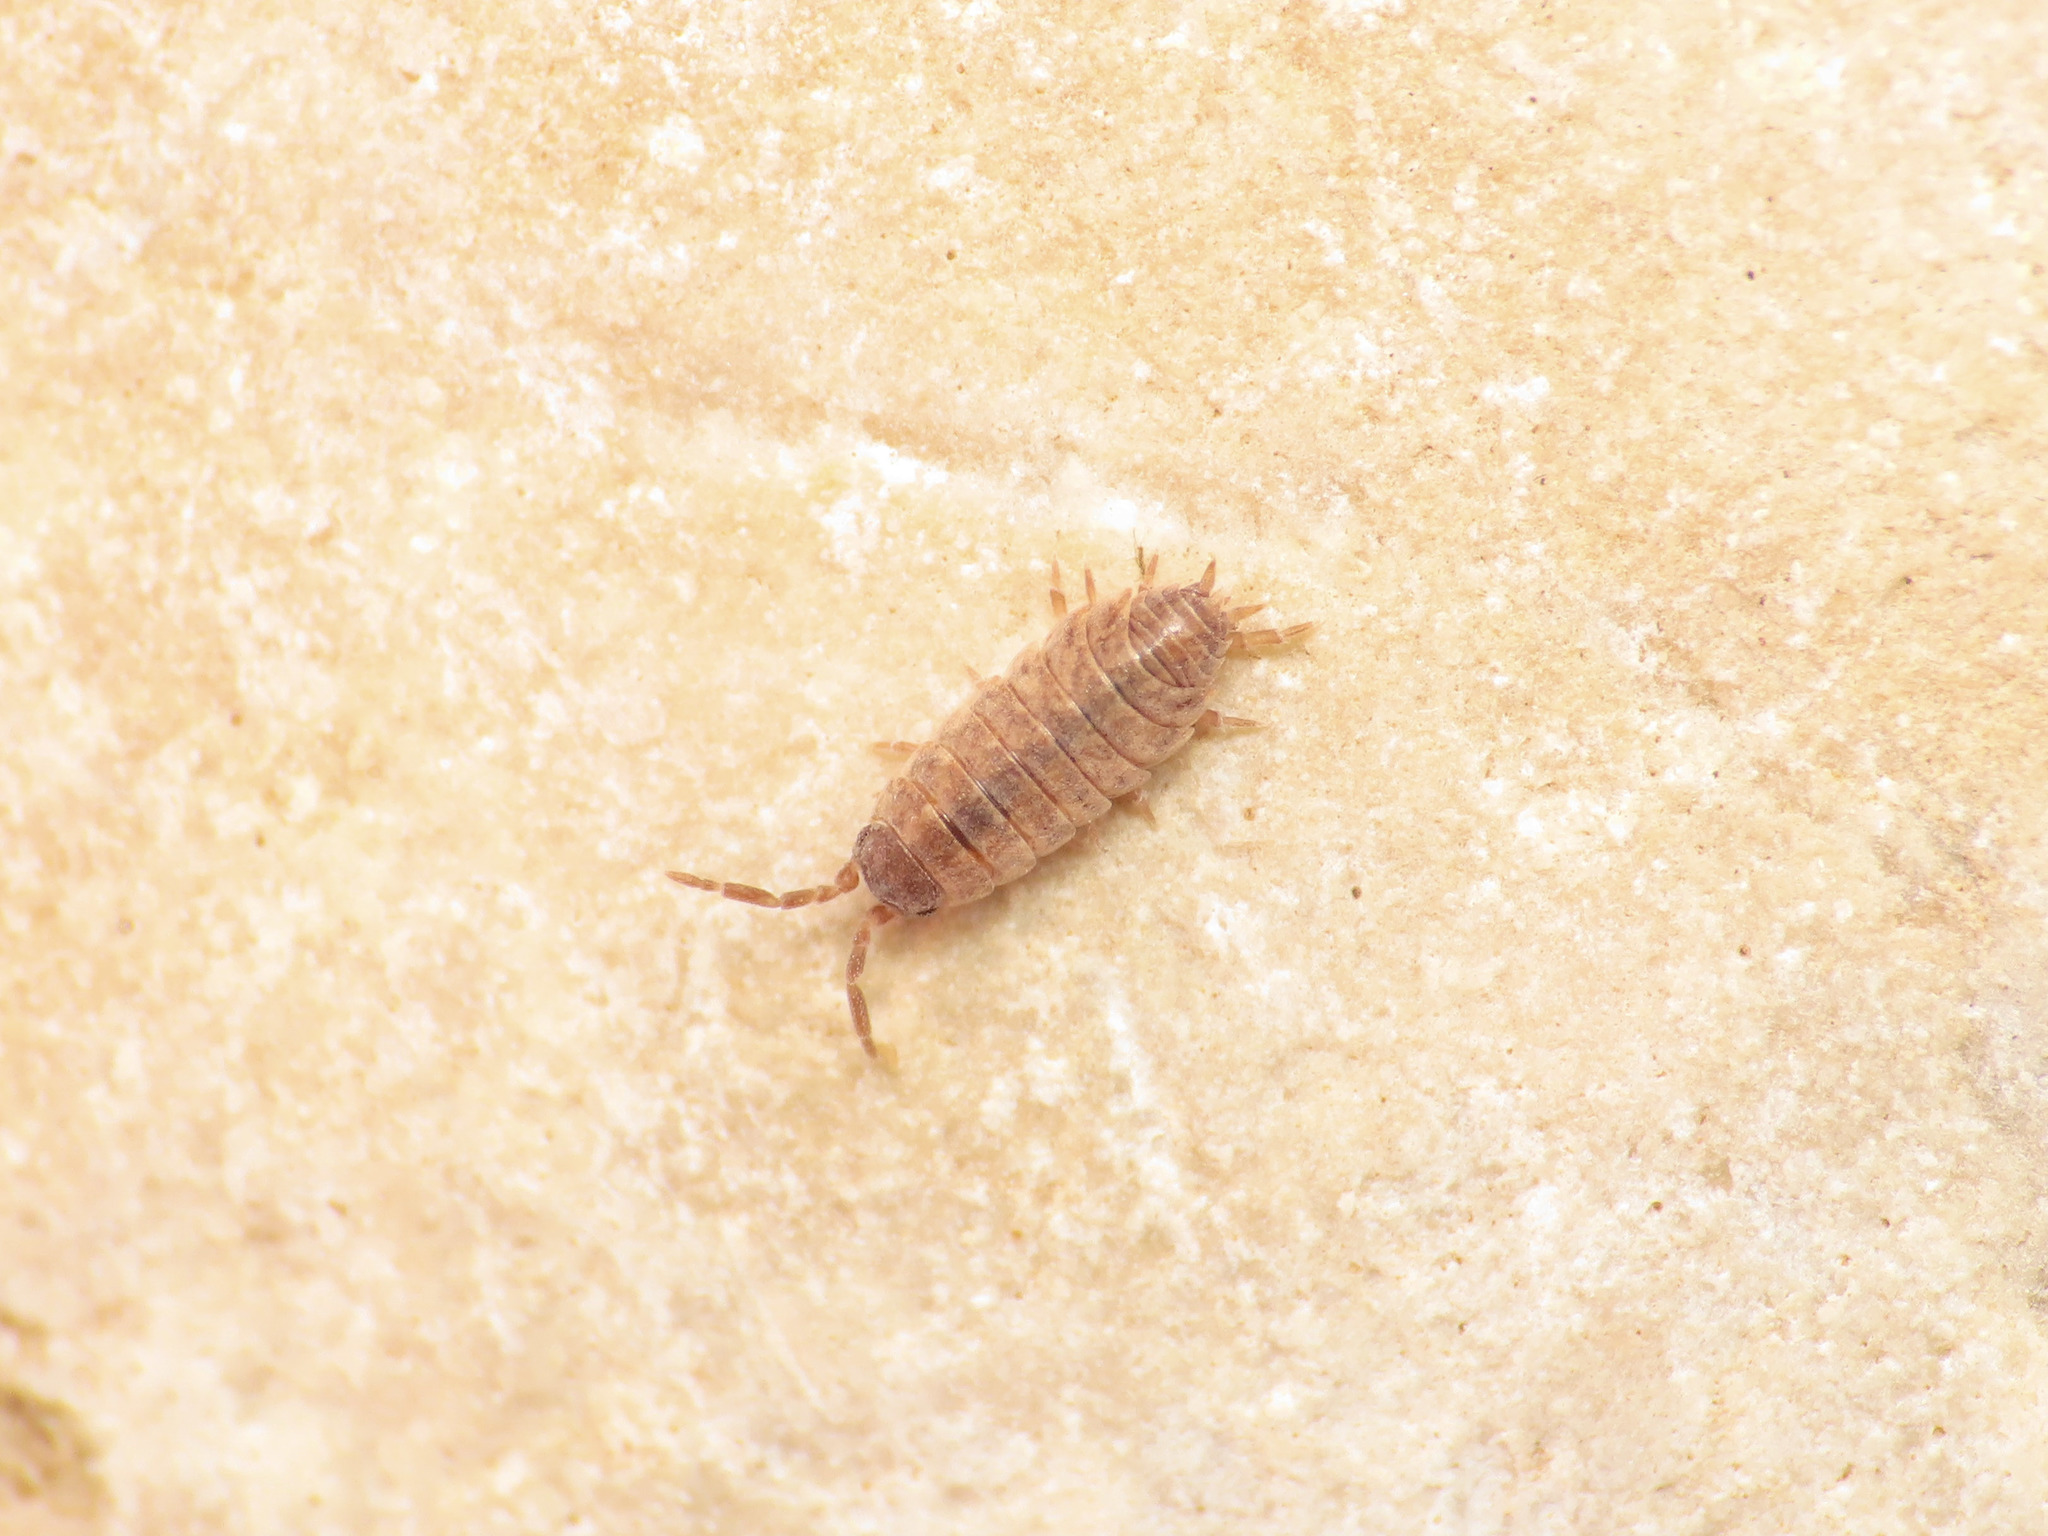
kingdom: Animalia
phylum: Arthropoda
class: Malacostraca
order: Isopoda
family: Porcellionidae
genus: Porcellionides
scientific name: Porcellionides aternanus
